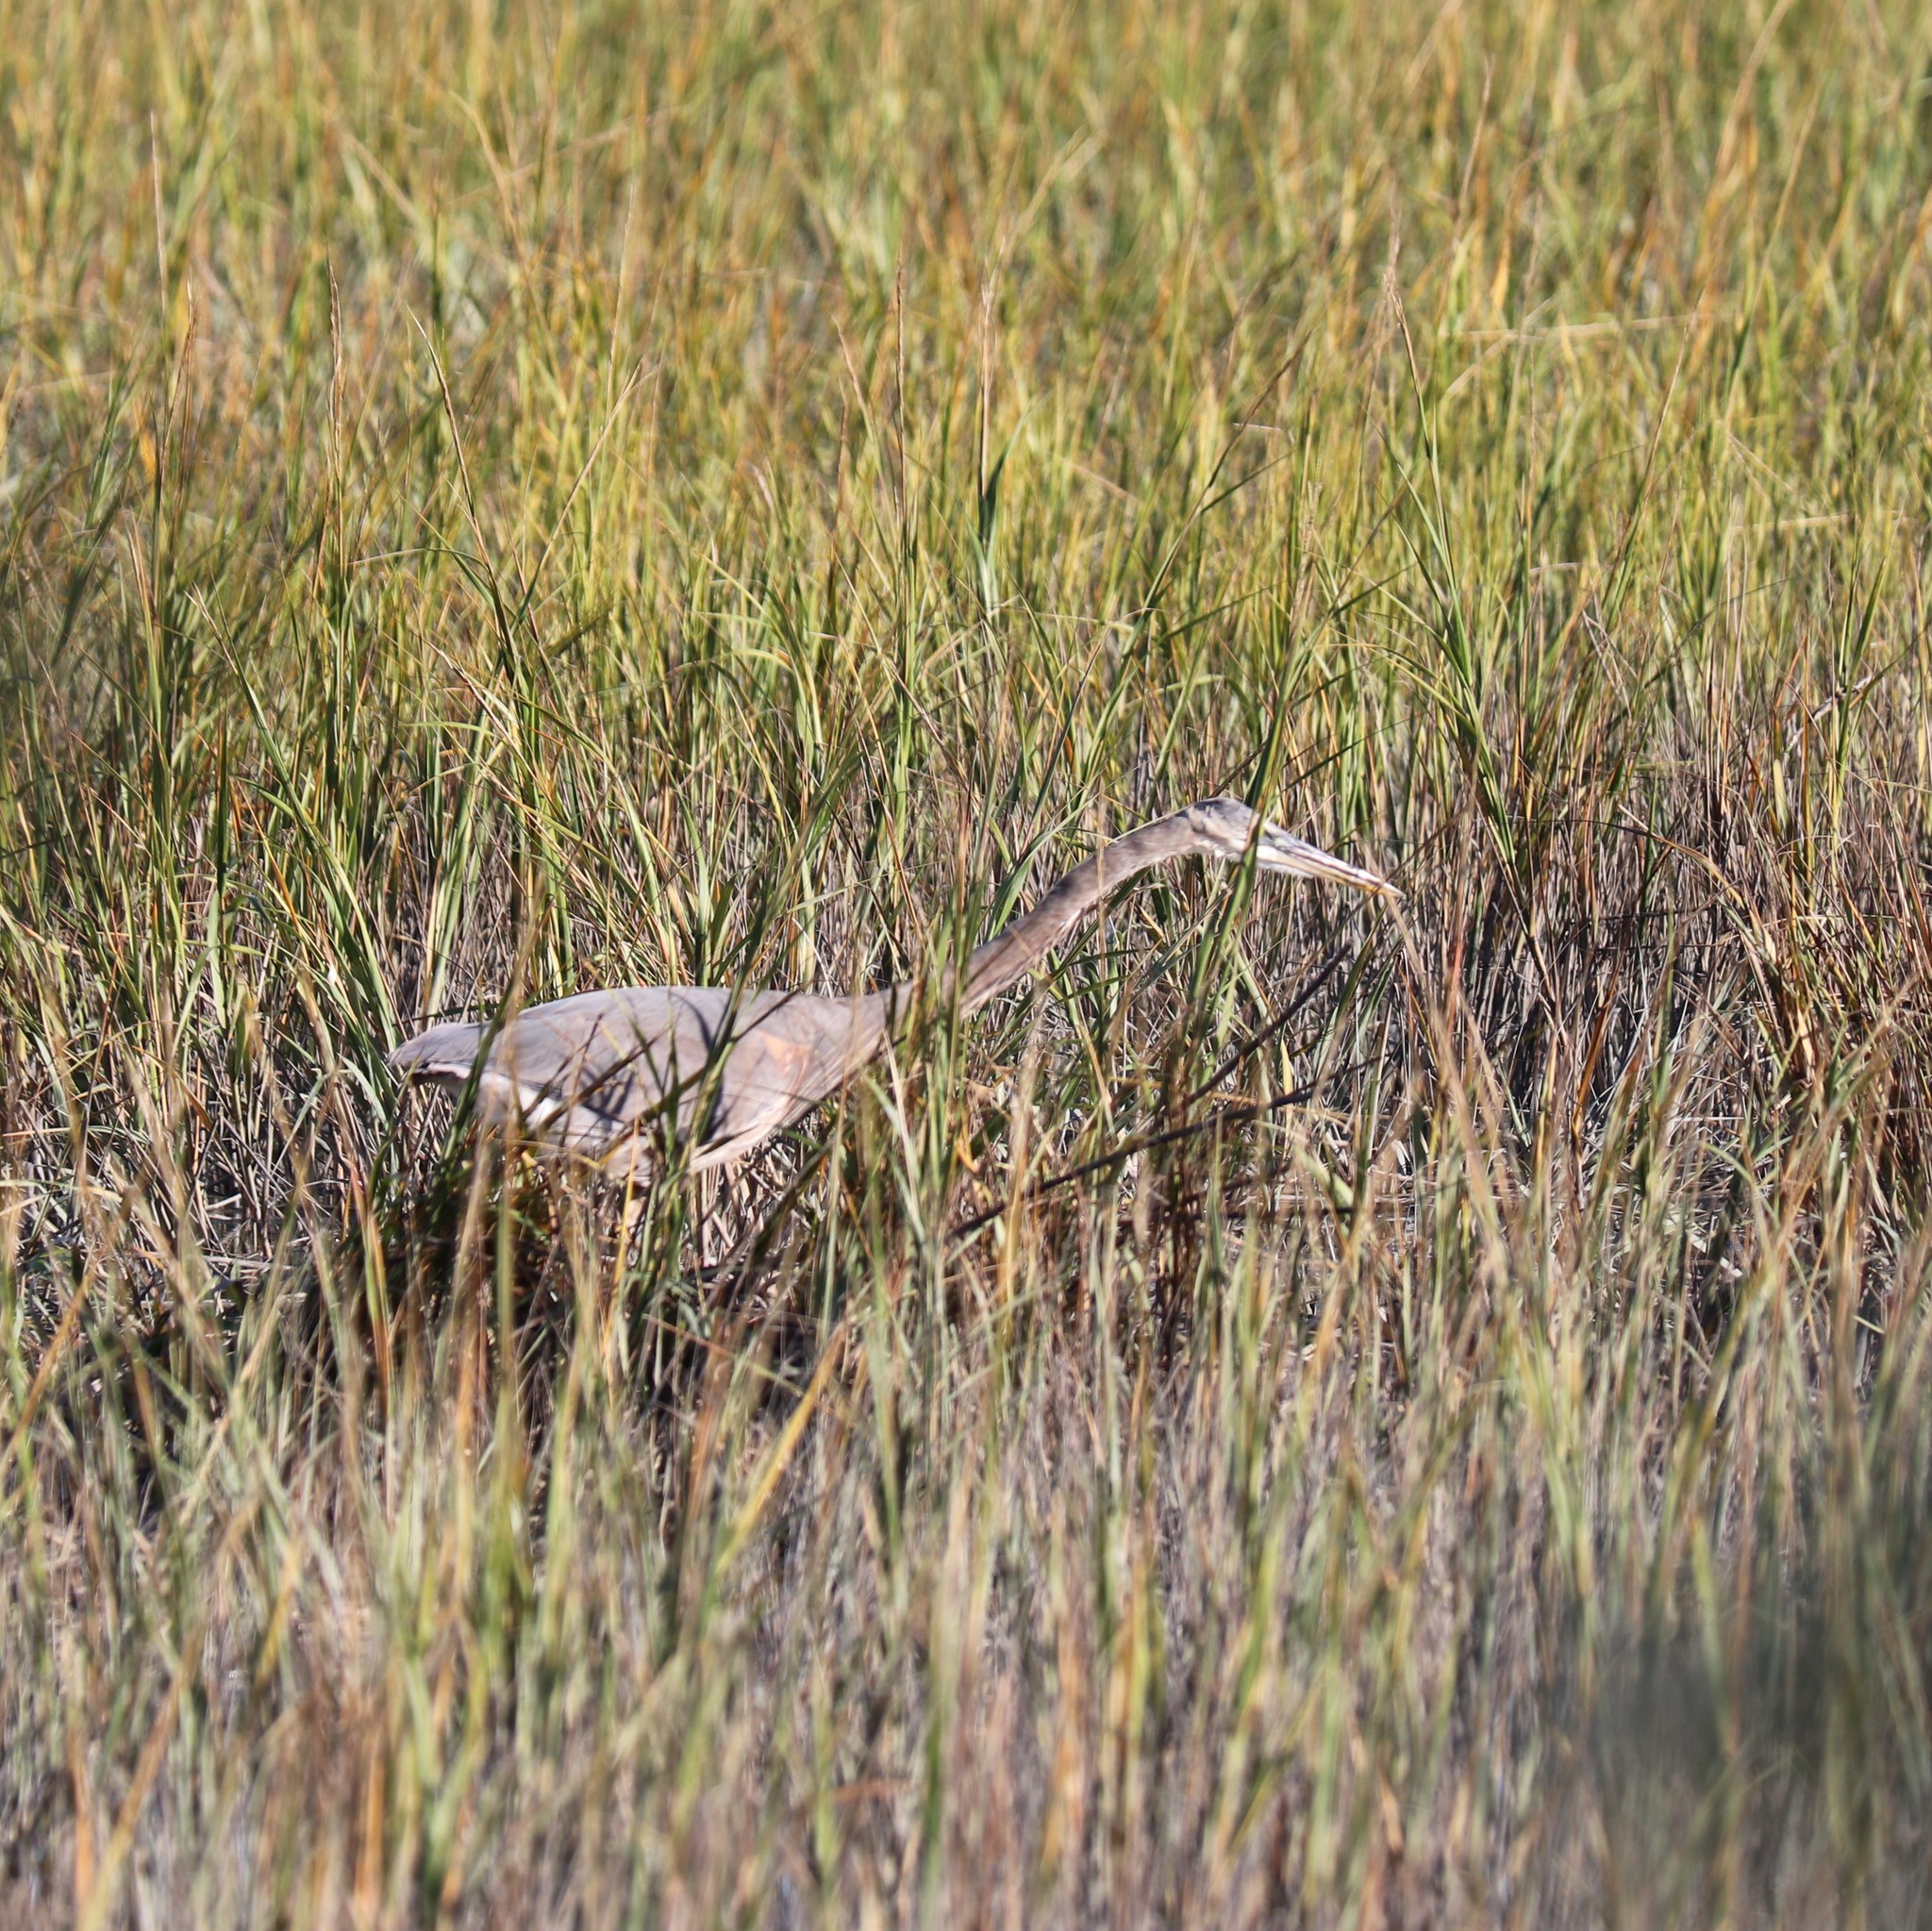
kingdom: Animalia
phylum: Chordata
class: Aves
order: Pelecaniformes
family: Ardeidae
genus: Ardea
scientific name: Ardea herodias
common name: Great blue heron
